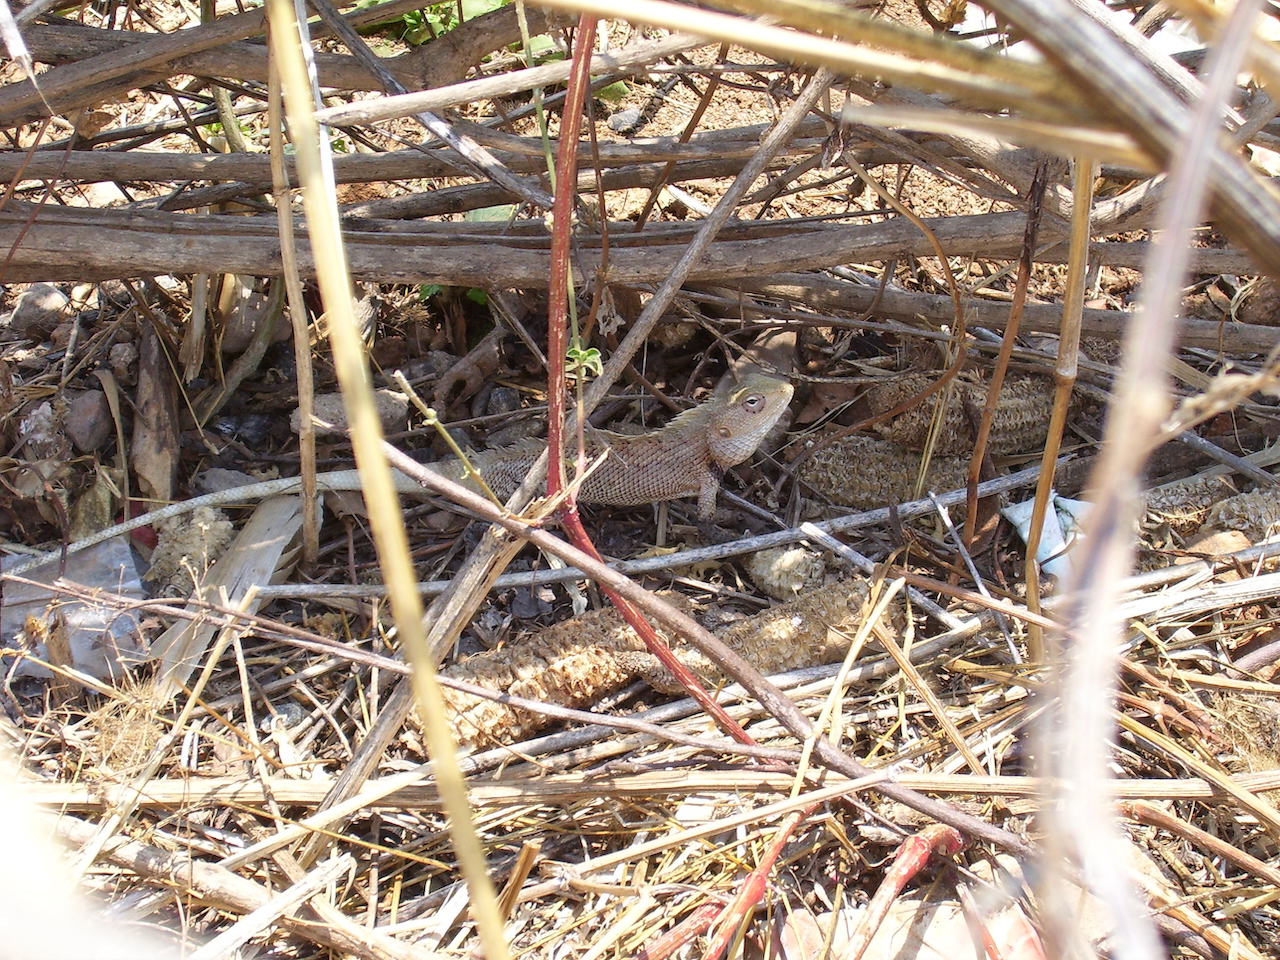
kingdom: Animalia
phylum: Chordata
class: Squamata
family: Agamidae
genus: Calotes
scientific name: Calotes versicolor
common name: Oriental garden lizard
